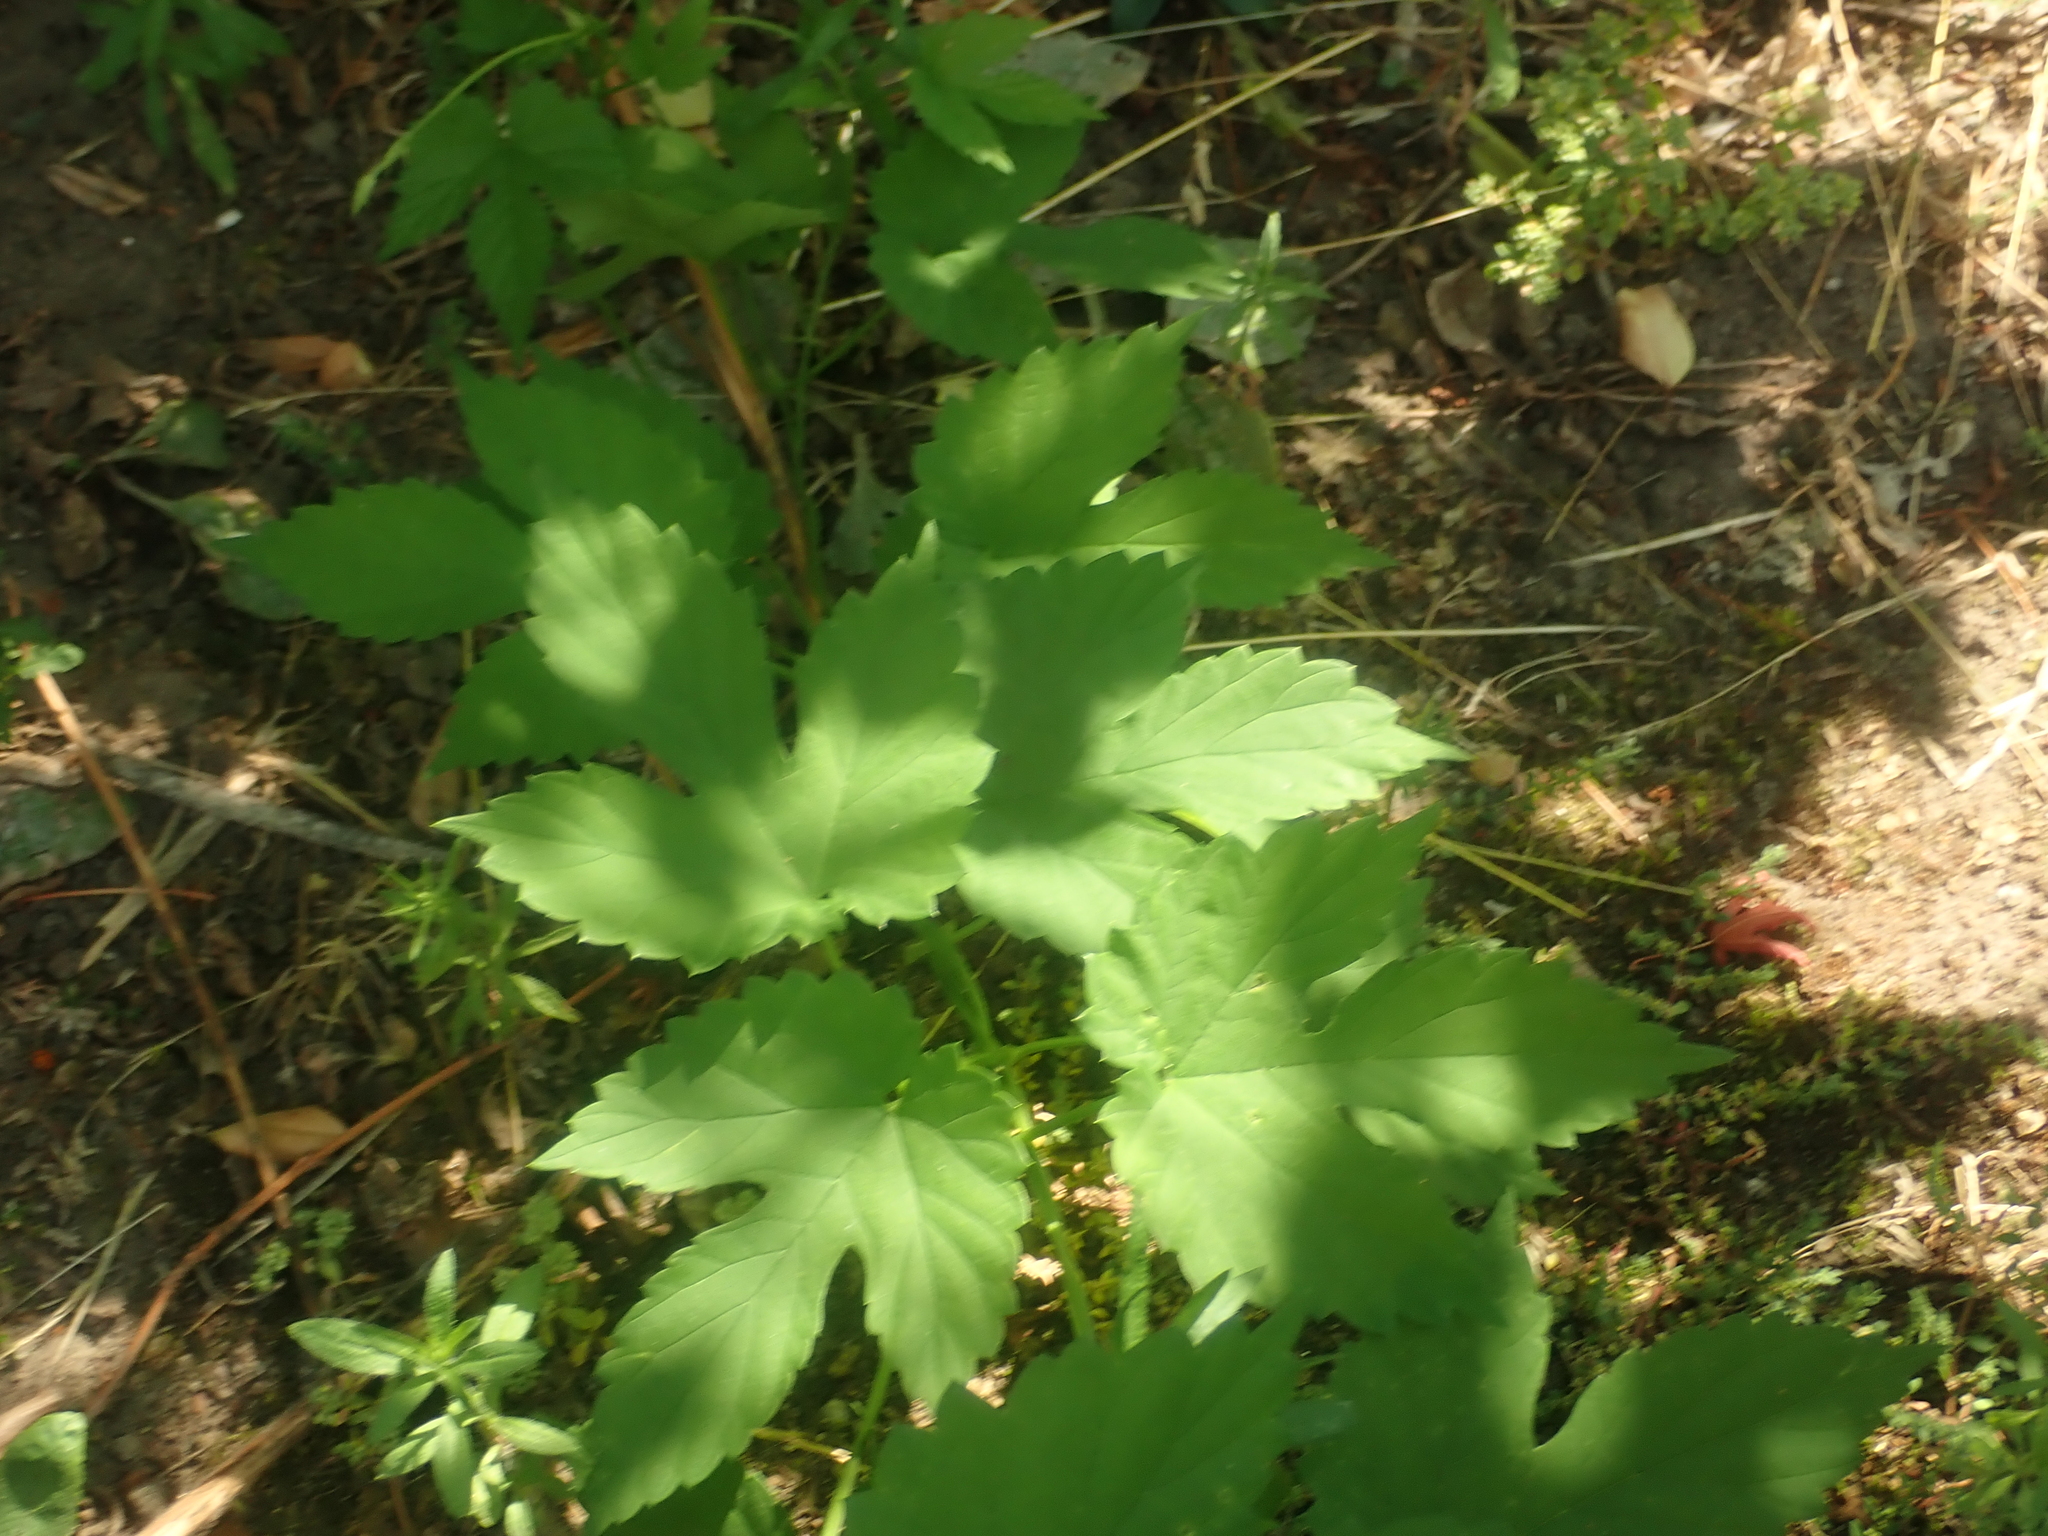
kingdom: Plantae
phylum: Tracheophyta
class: Magnoliopsida
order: Rosales
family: Cannabaceae
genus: Humulus
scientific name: Humulus lupulus
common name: Hop
